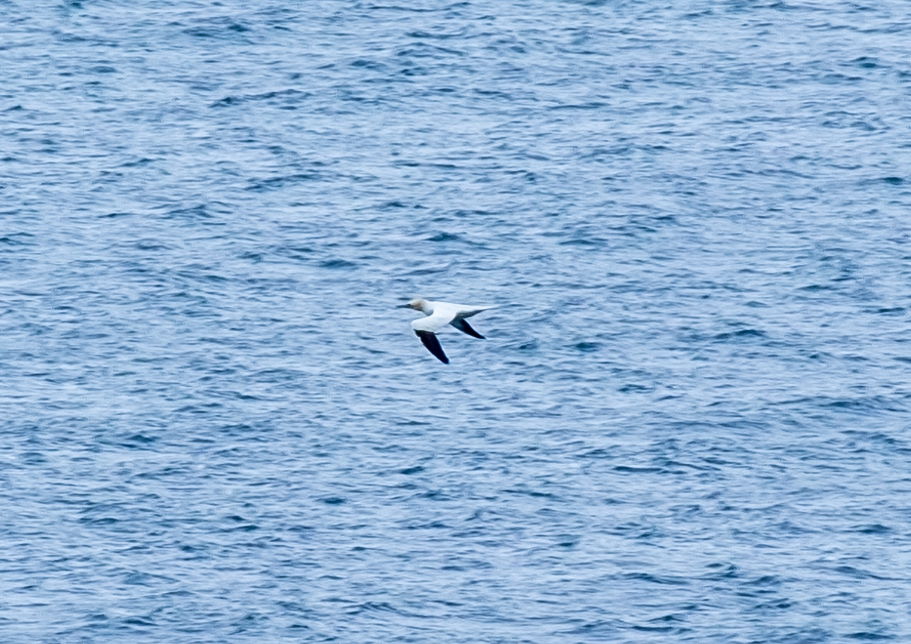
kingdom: Animalia
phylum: Chordata
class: Aves
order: Suliformes
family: Sulidae
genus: Morus
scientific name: Morus bassanus
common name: Northern gannet
